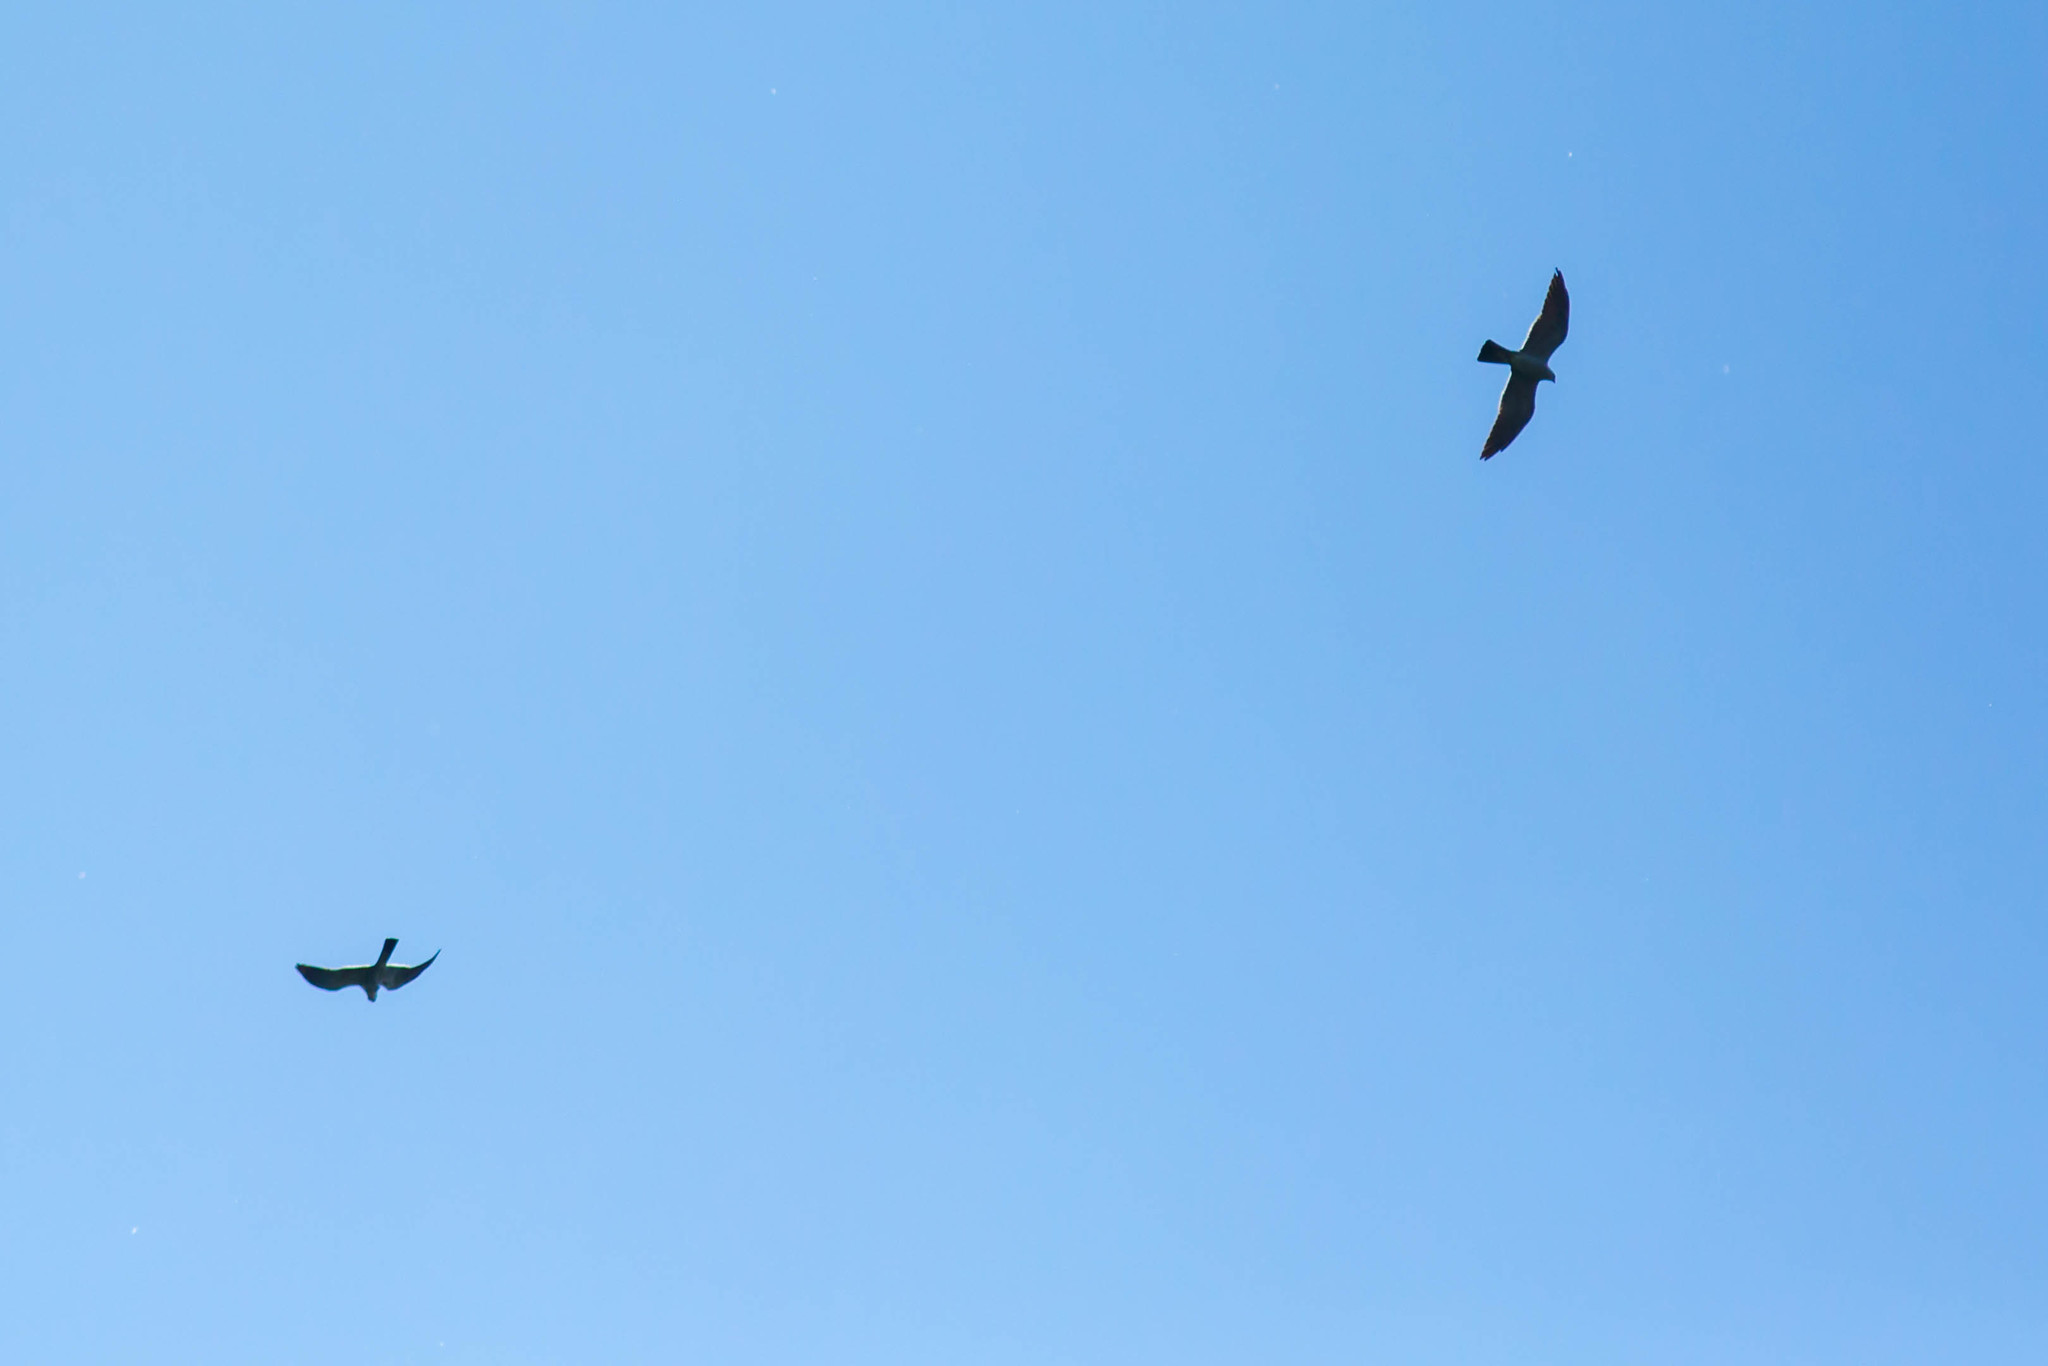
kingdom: Animalia
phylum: Chordata
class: Aves
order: Accipitriformes
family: Accipitridae
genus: Ictinia
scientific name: Ictinia mississippiensis
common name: Mississippi kite
